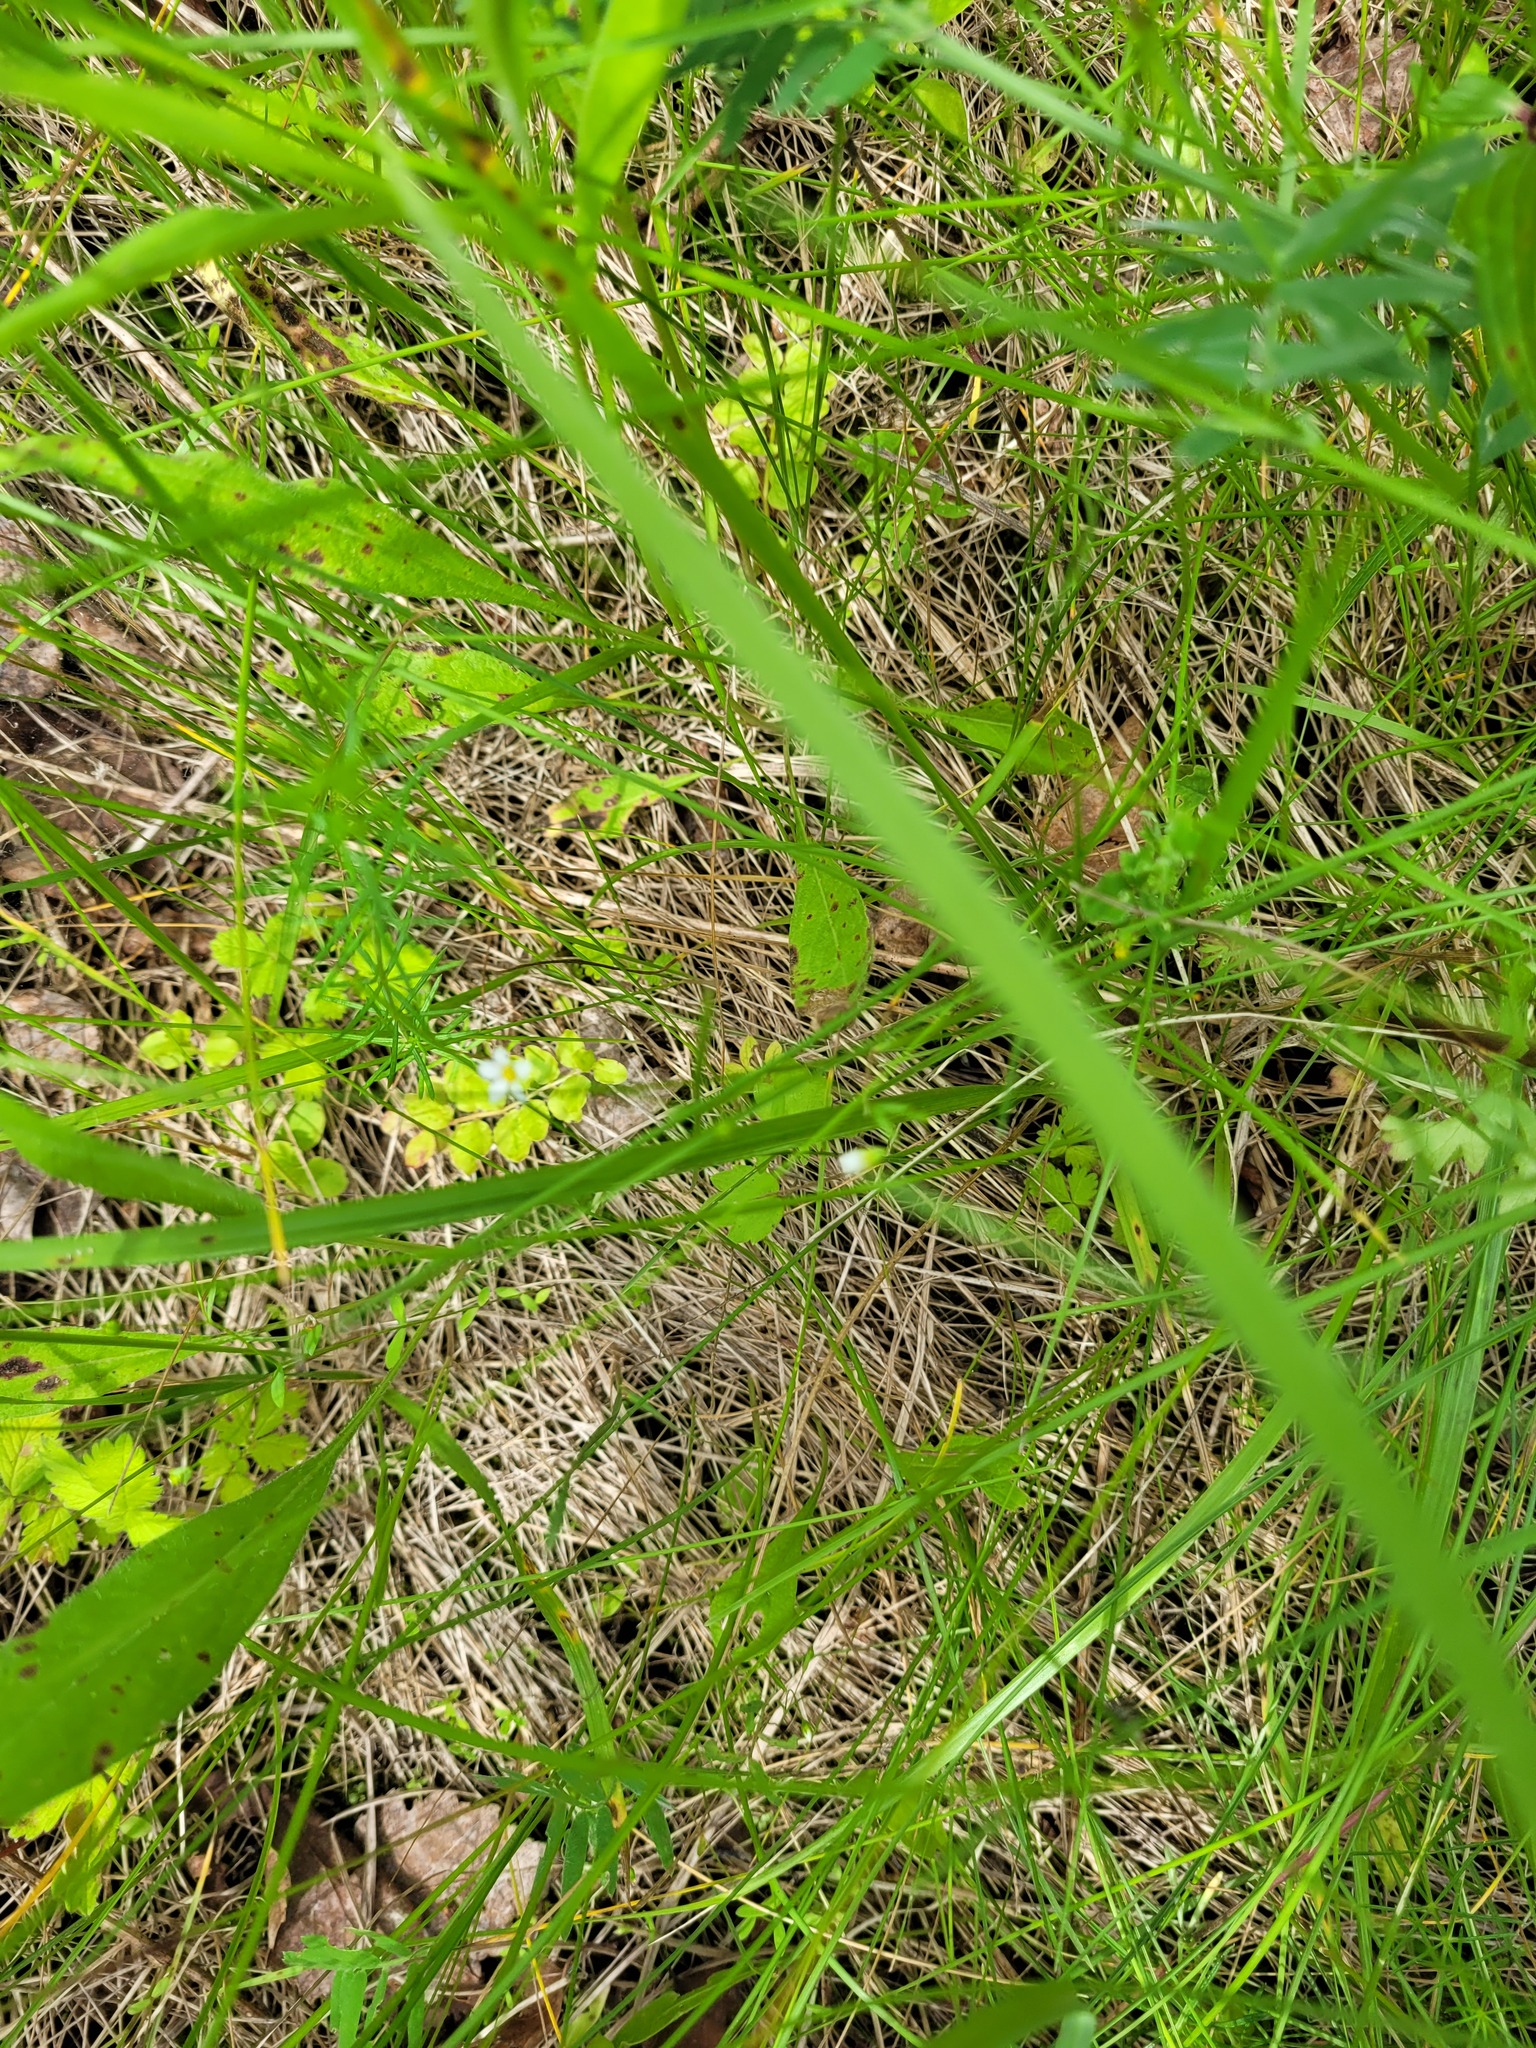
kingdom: Plantae
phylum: Tracheophyta
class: Magnoliopsida
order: Malpighiales
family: Linaceae
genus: Linum
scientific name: Linum catharticum
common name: Fairy flax
